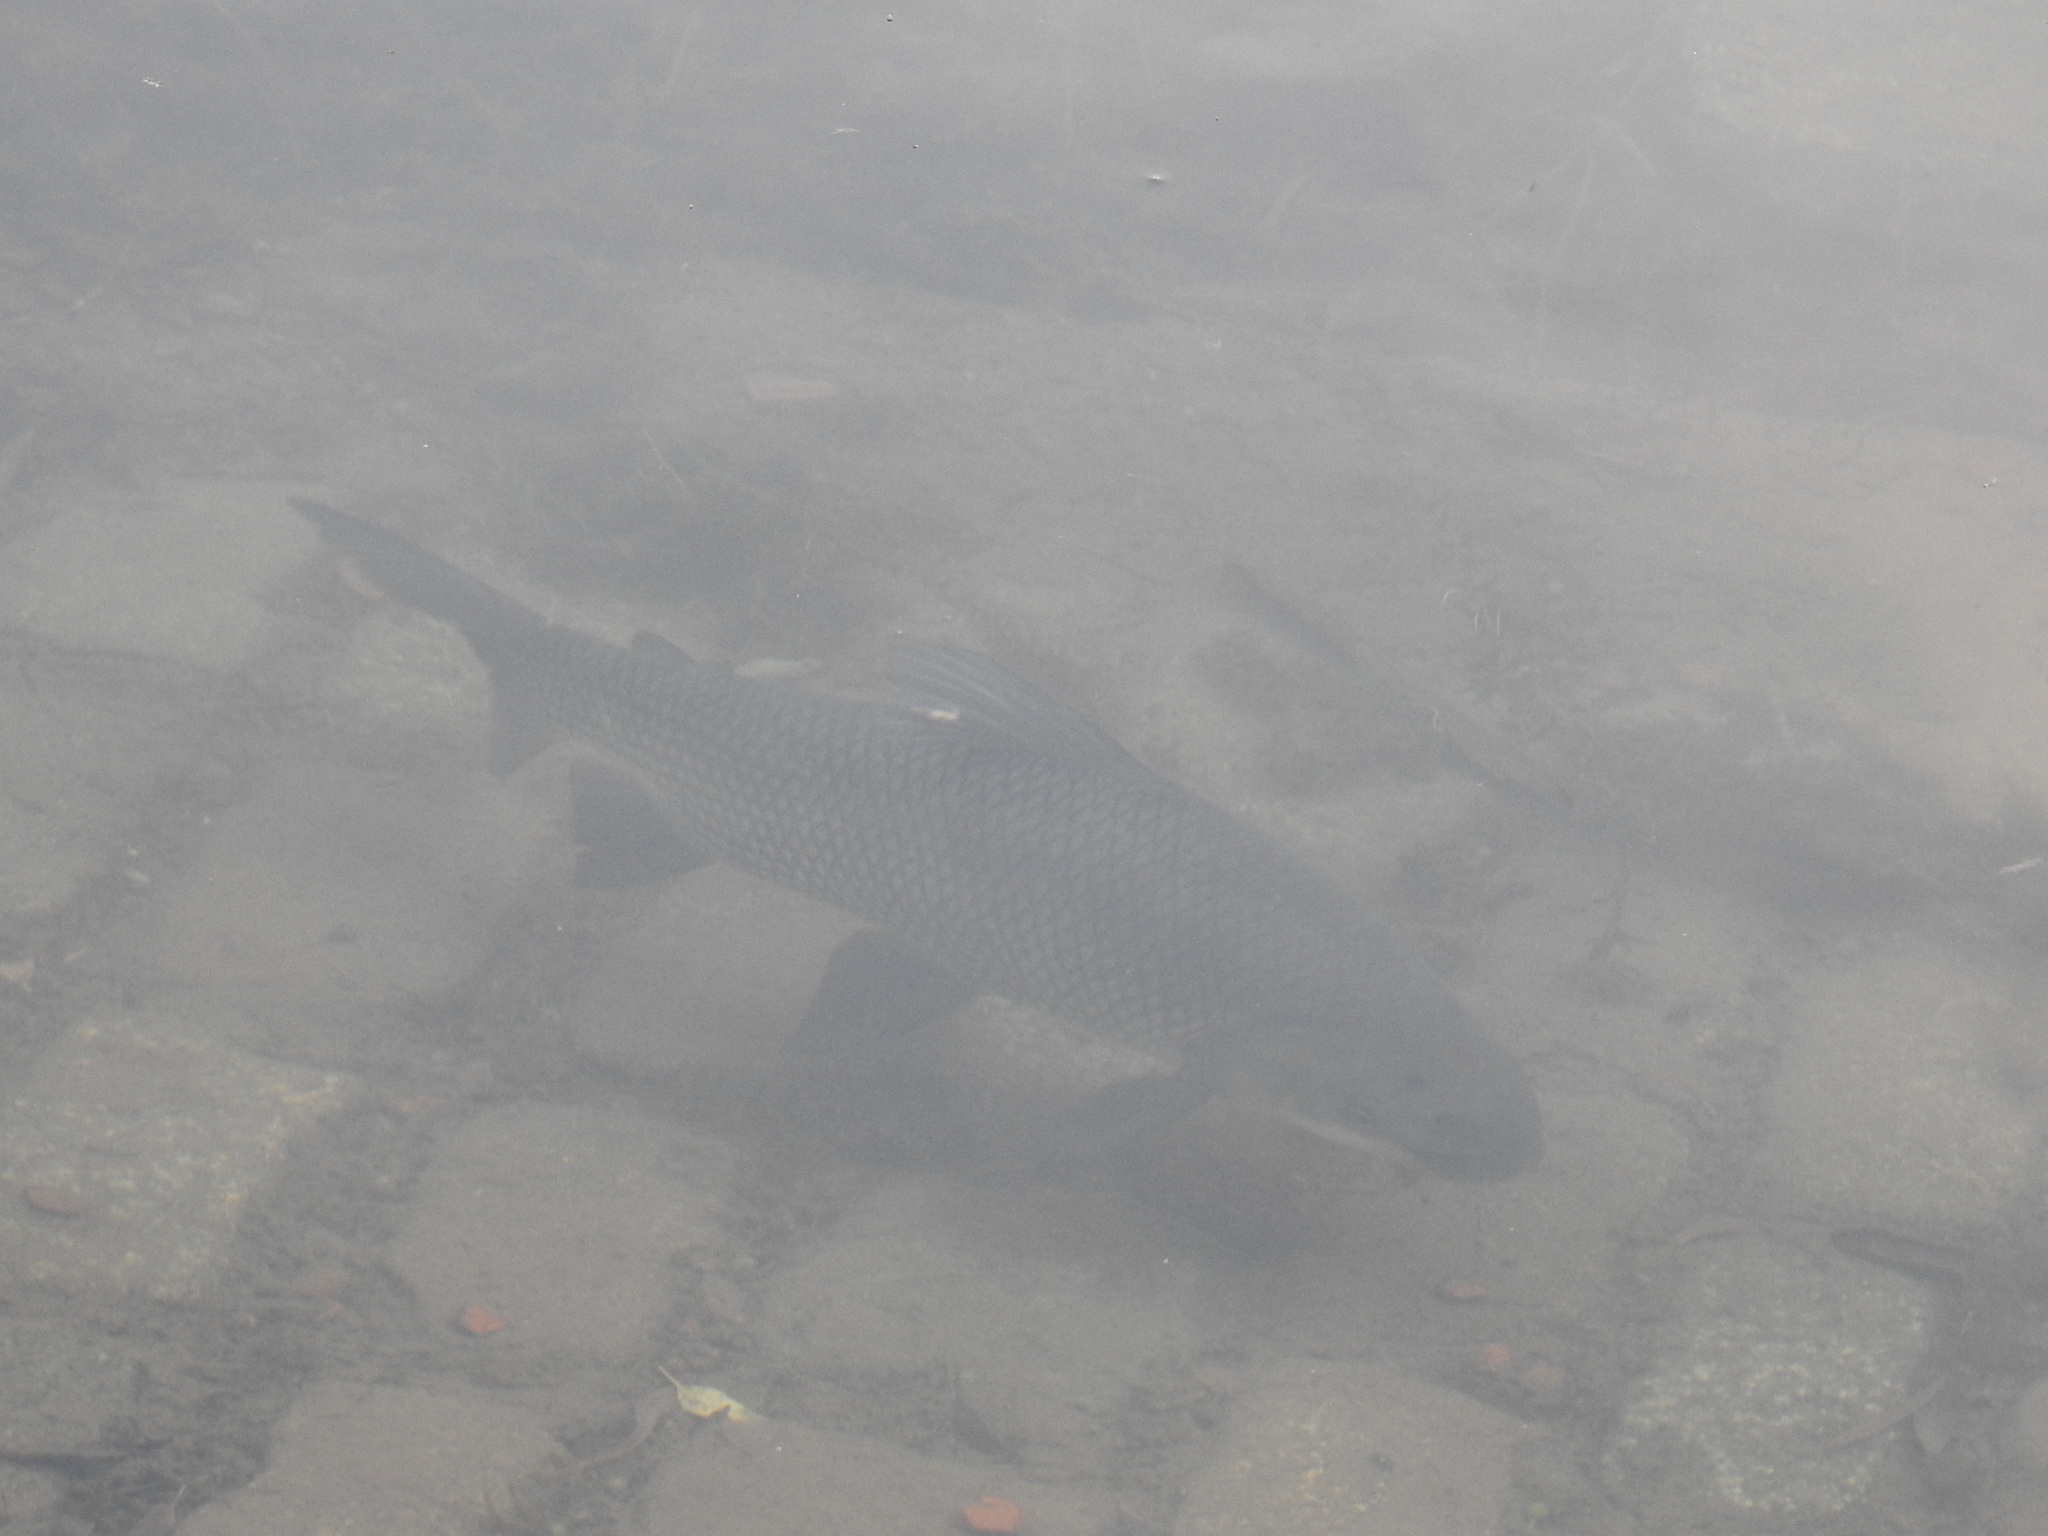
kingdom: Animalia
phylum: Chordata
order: Characiformes
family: Prochilodontidae
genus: Prochilodus
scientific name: Prochilodus lineatus
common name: Curimbata
